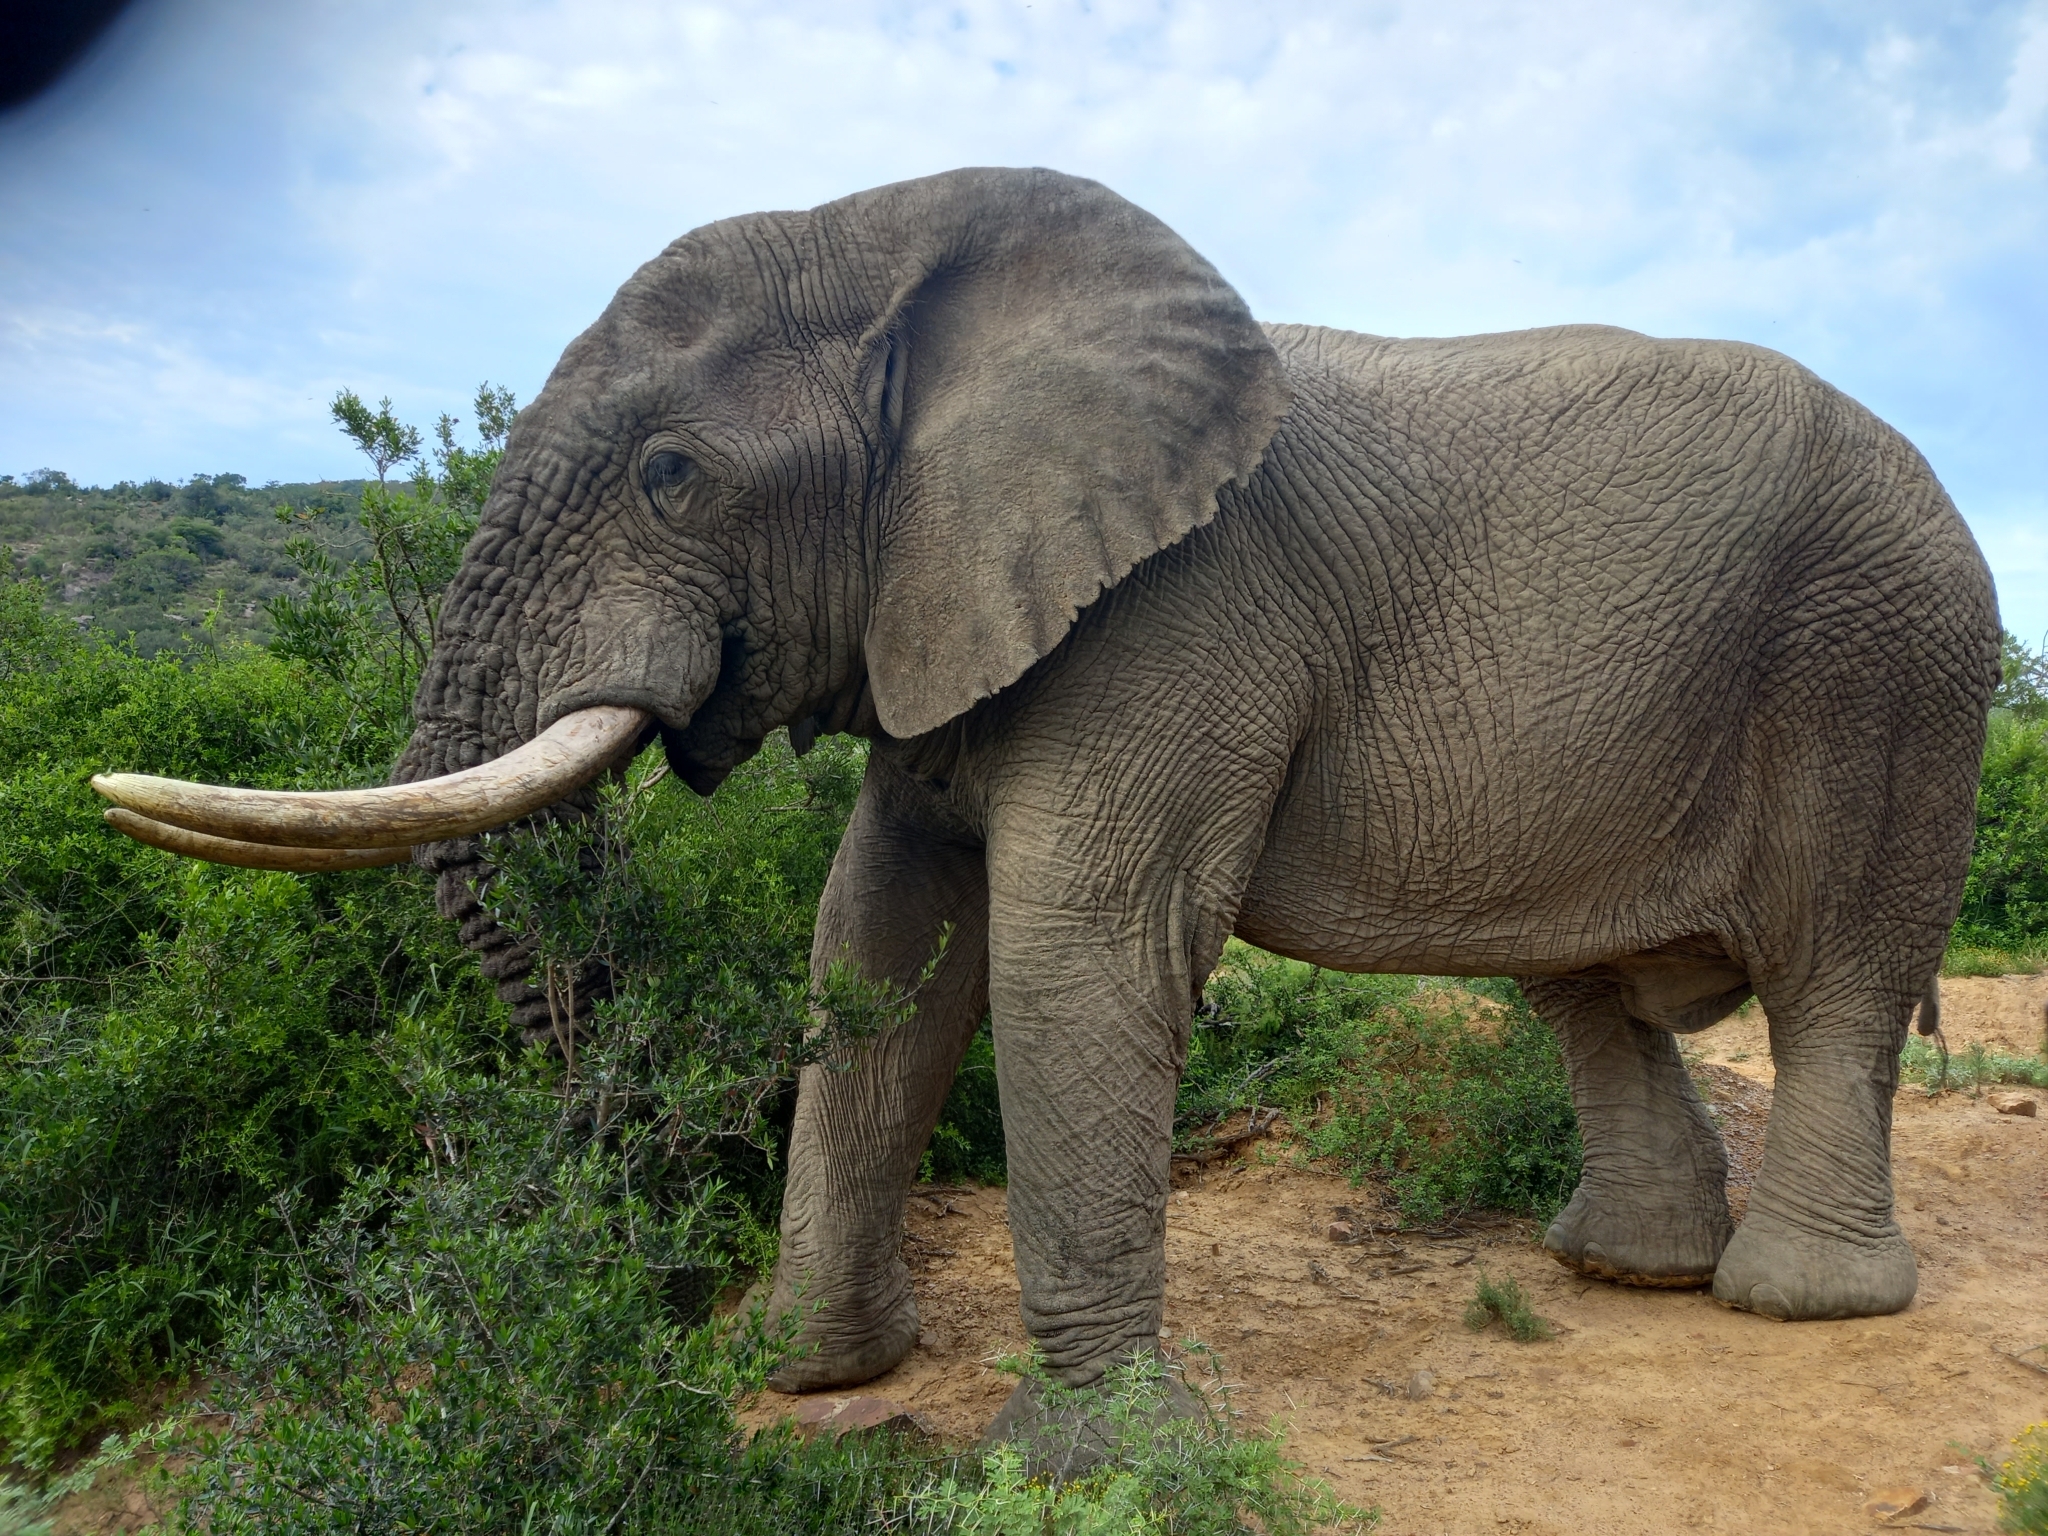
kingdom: Animalia
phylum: Chordata
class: Mammalia
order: Proboscidea
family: Elephantidae
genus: Loxodonta
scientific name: Loxodonta africana
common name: African elephant
